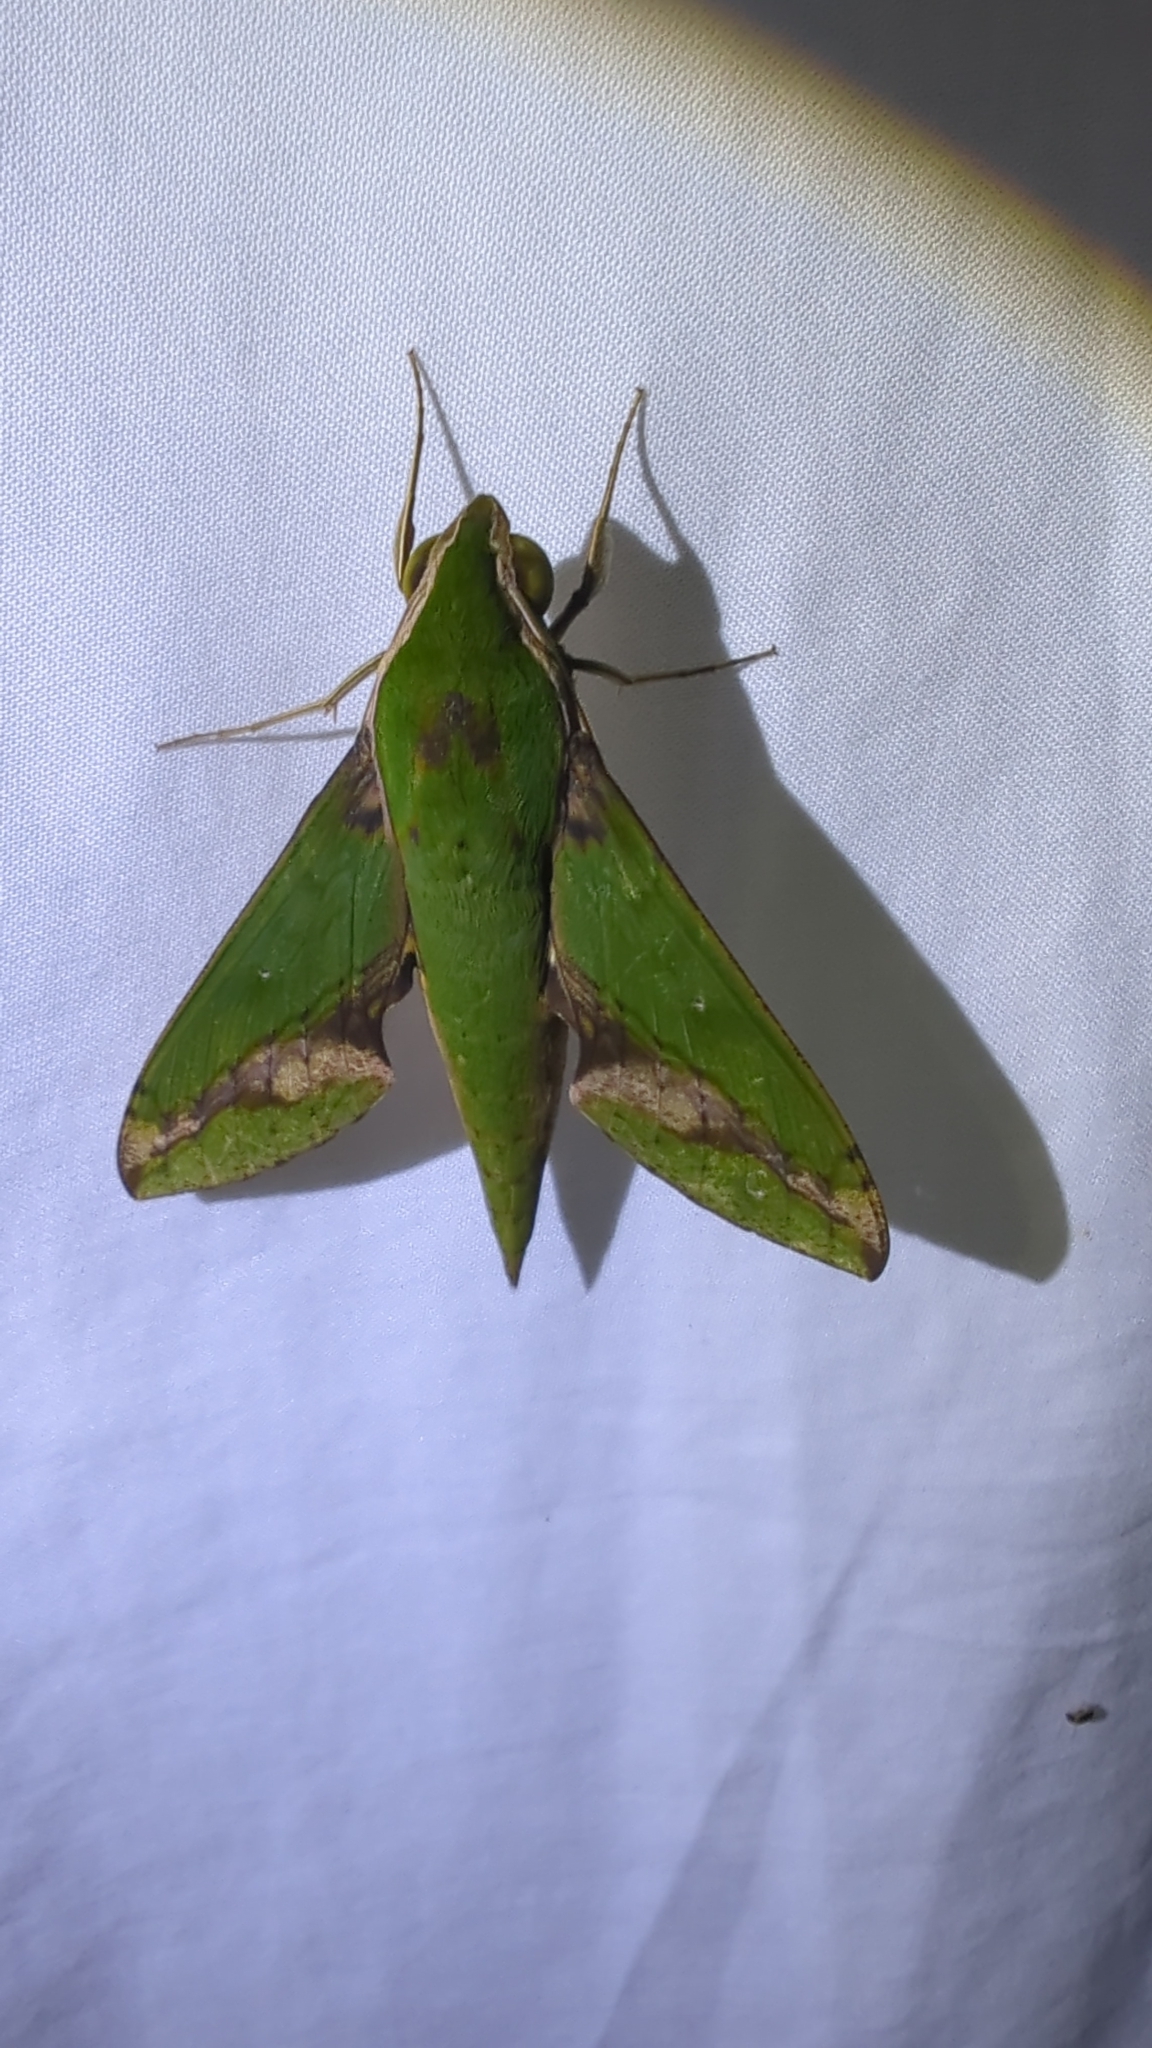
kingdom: Animalia
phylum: Arthropoda
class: Insecta
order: Lepidoptera
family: Sphingidae
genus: Xylophanes
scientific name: Xylophanes chiron
